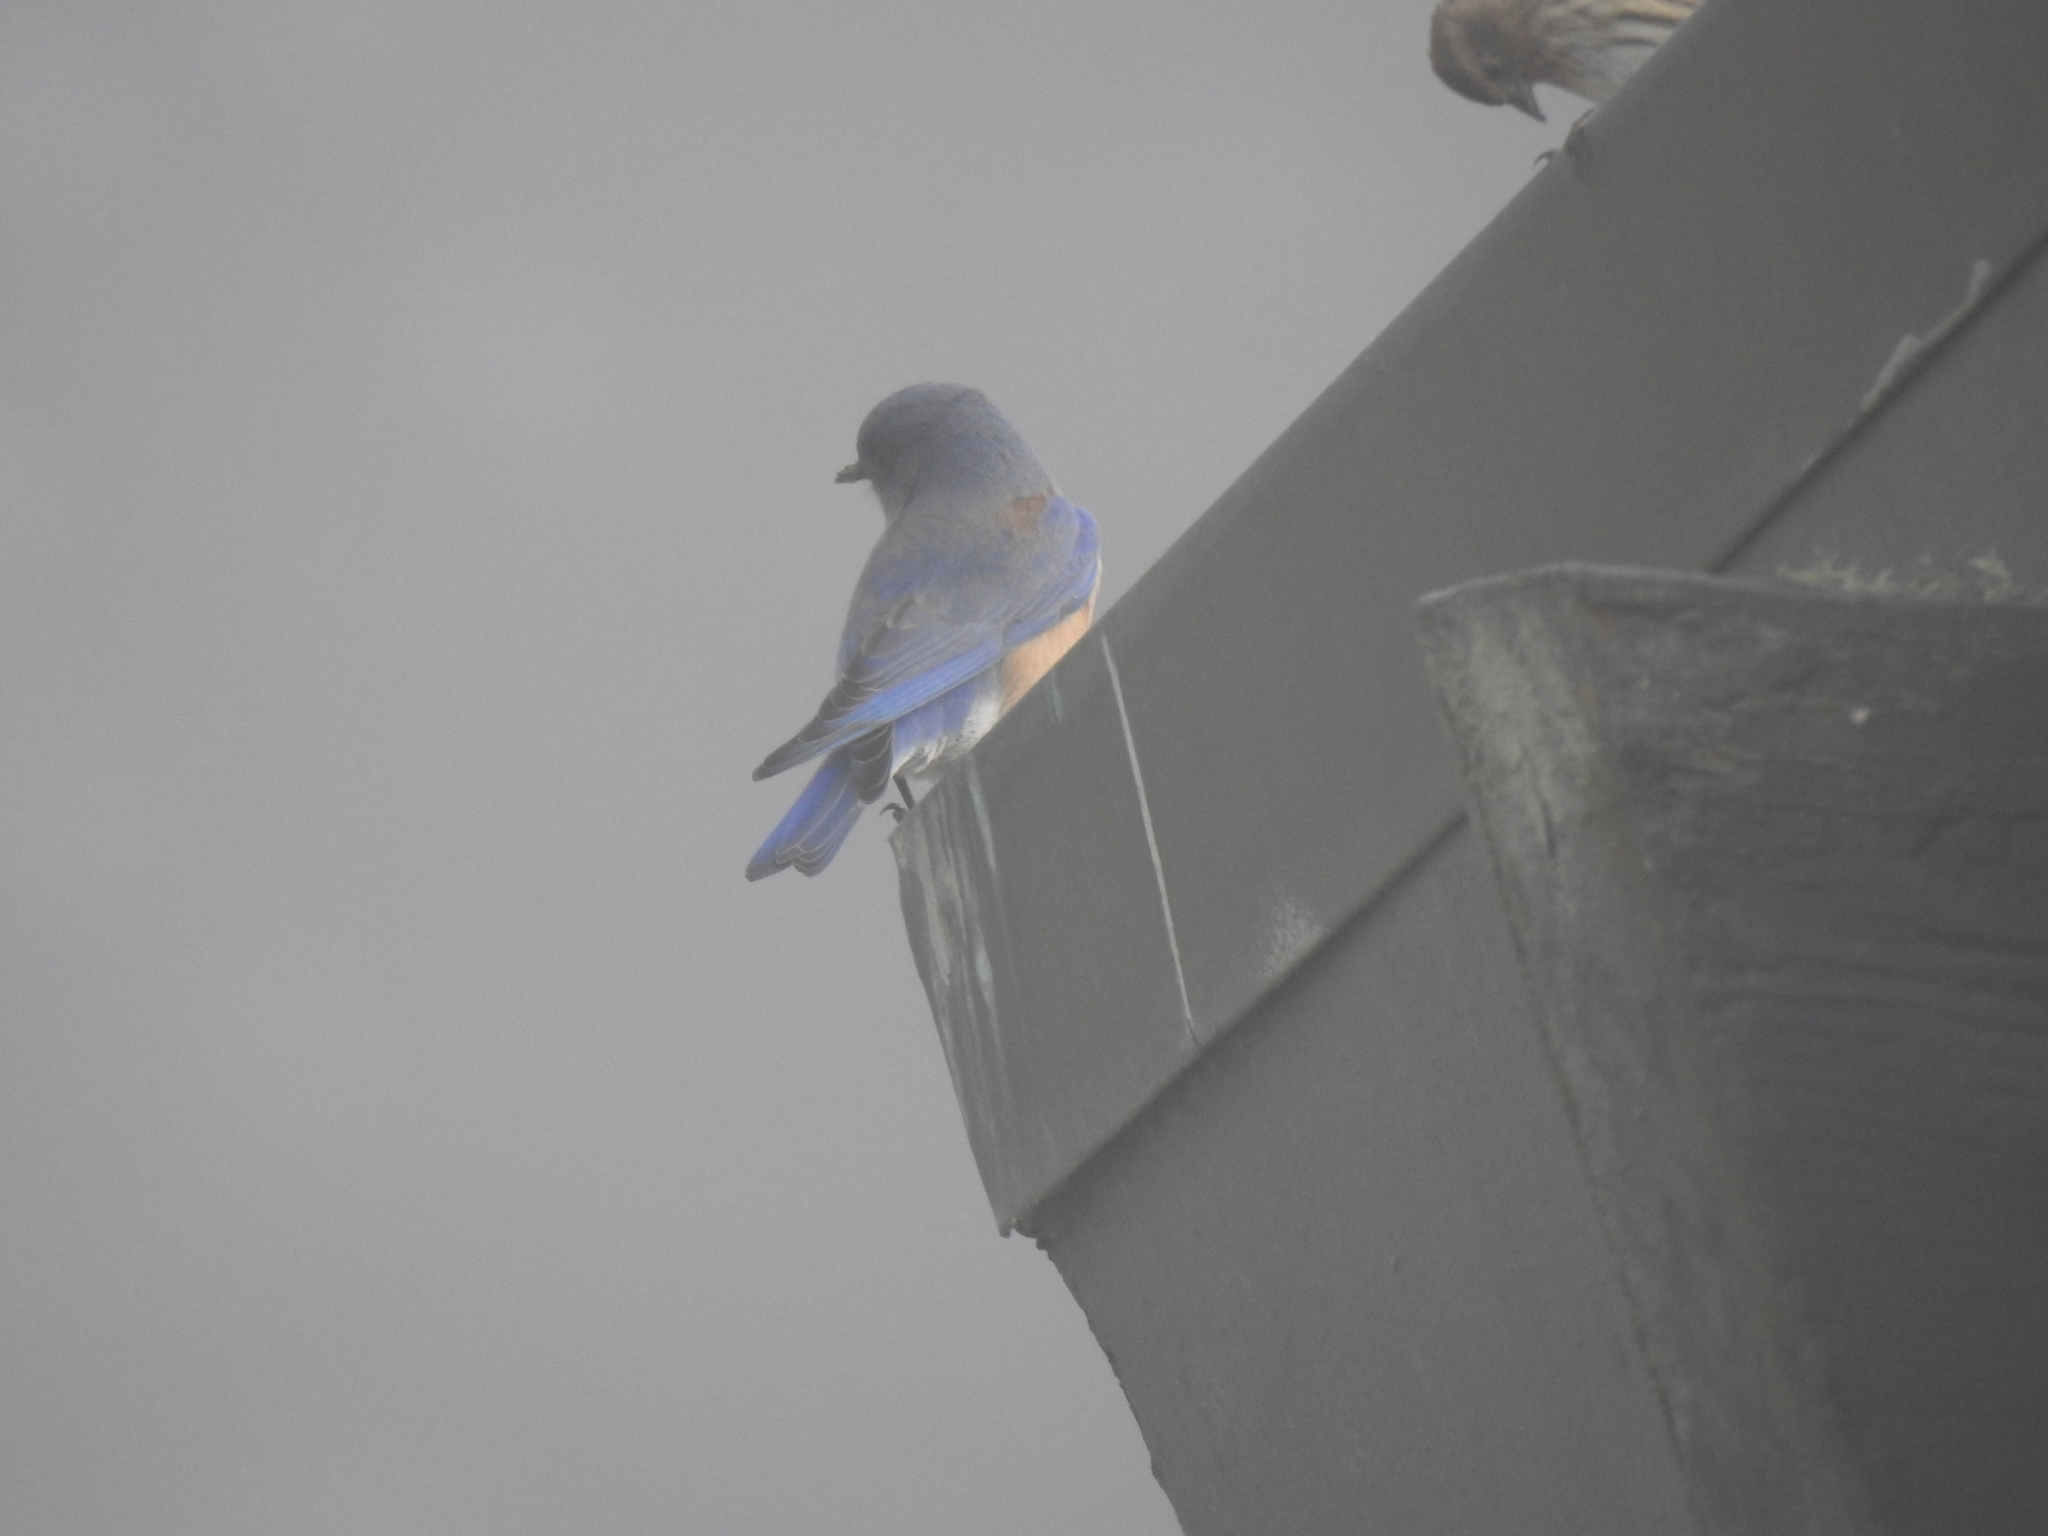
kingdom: Animalia
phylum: Chordata
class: Aves
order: Passeriformes
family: Turdidae
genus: Sialia
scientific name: Sialia mexicana
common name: Western bluebird
